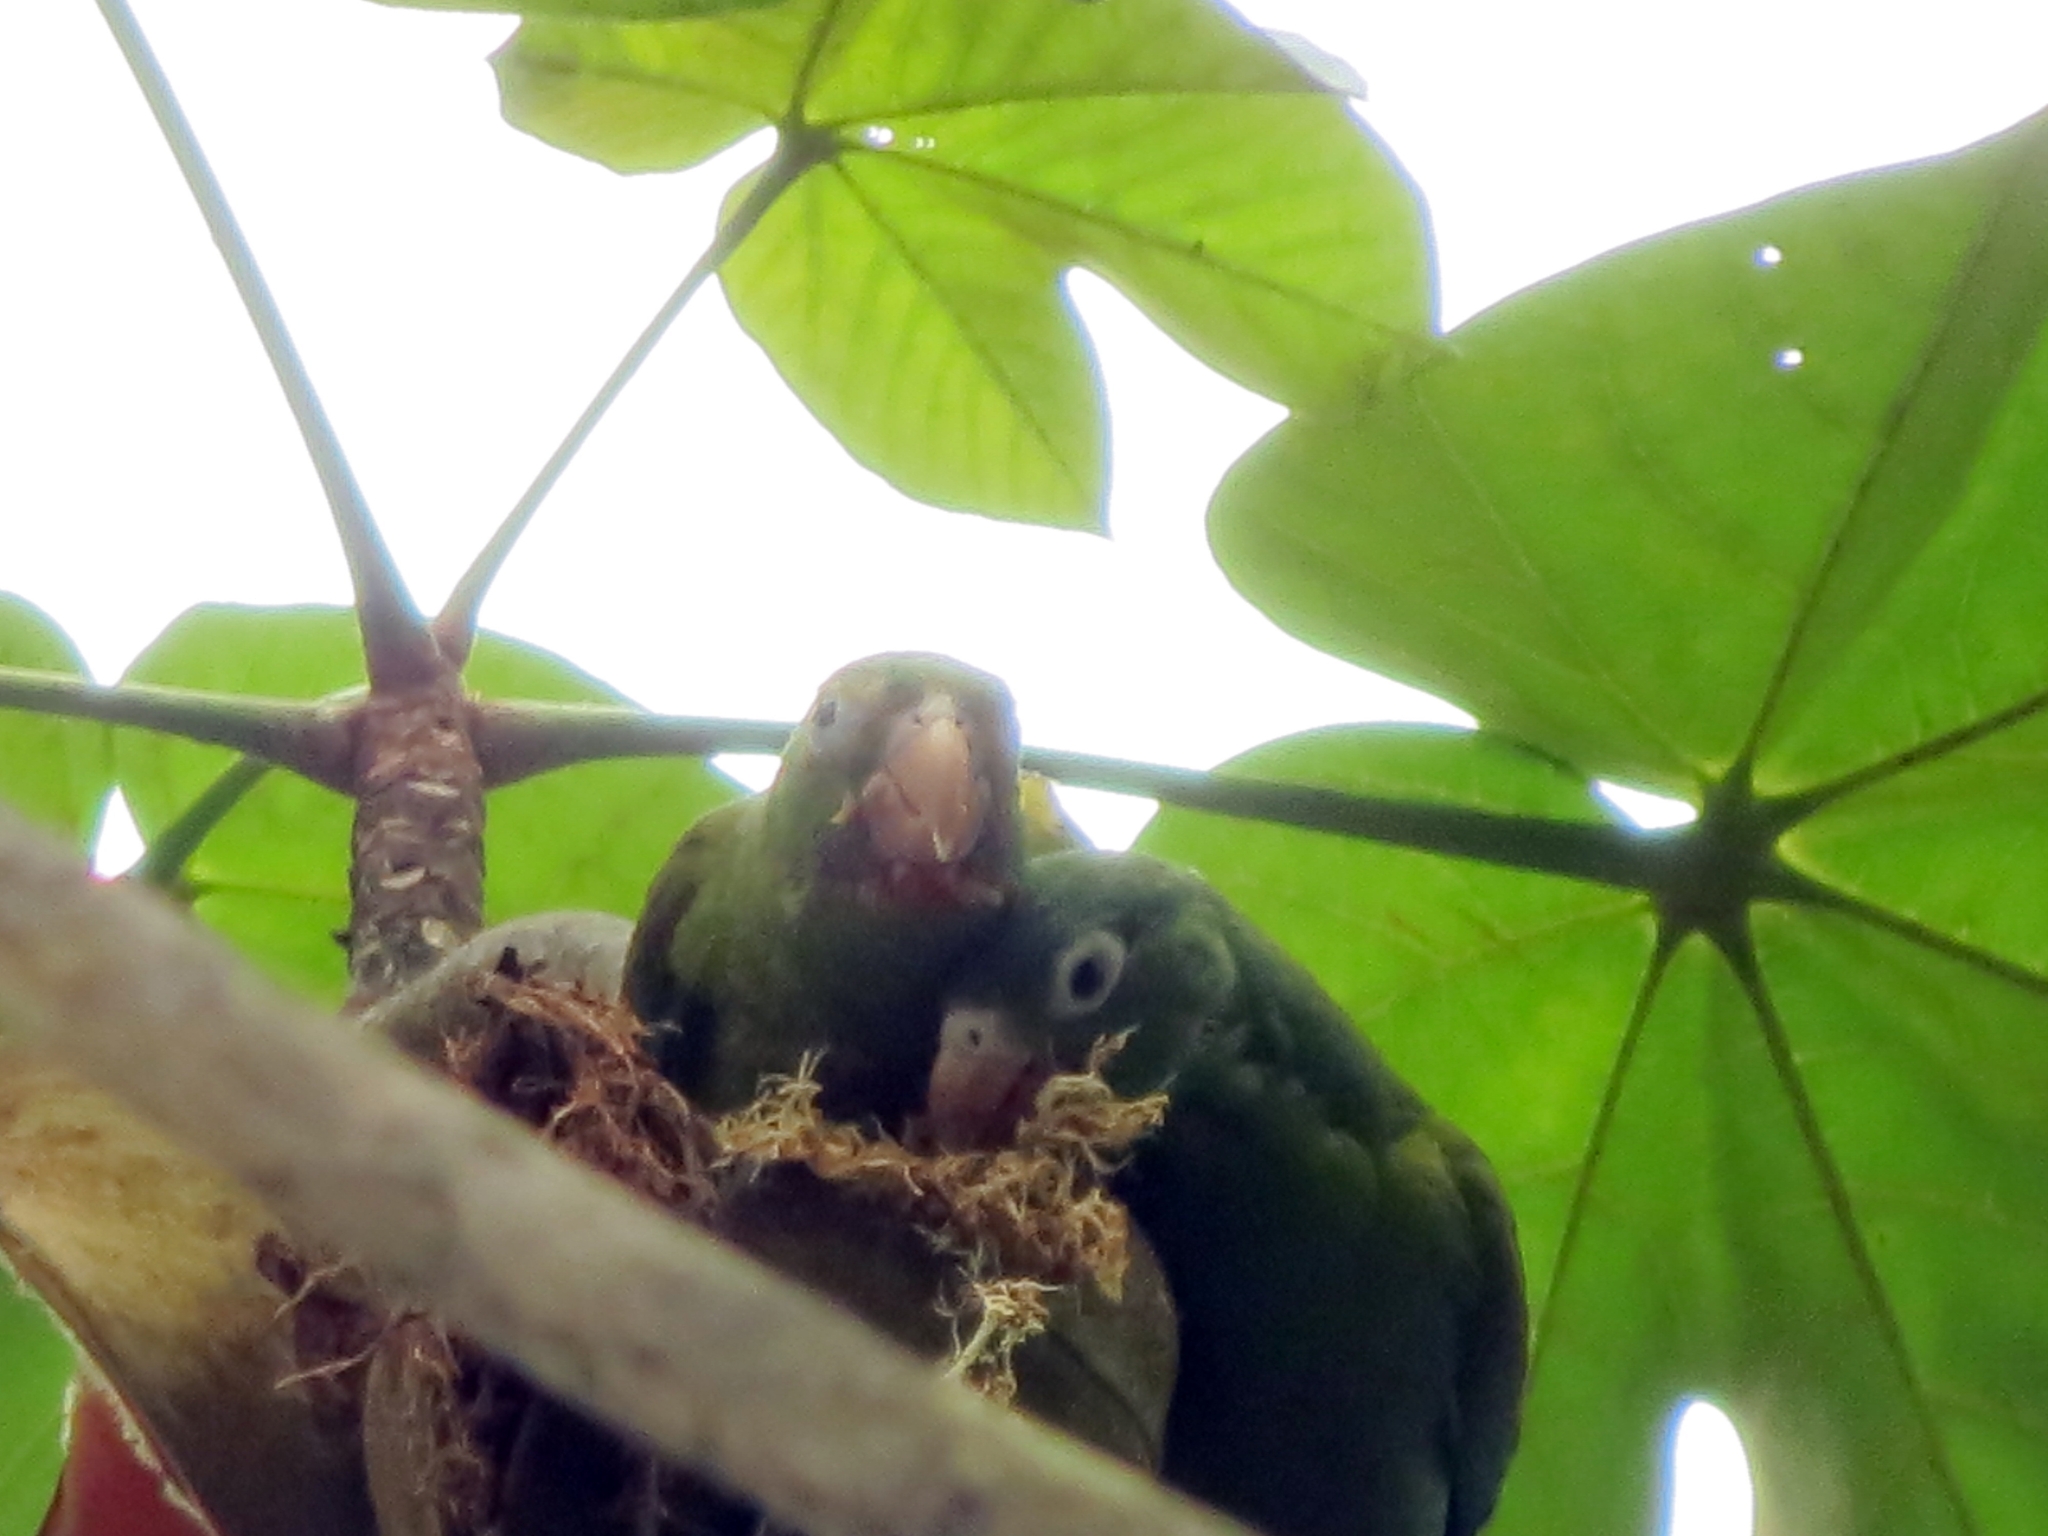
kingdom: Animalia
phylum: Chordata
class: Aves
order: Psittaciformes
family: Psittacidae
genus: Brotogeris
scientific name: Brotogeris jugularis
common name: Orange-chinned parakeet
